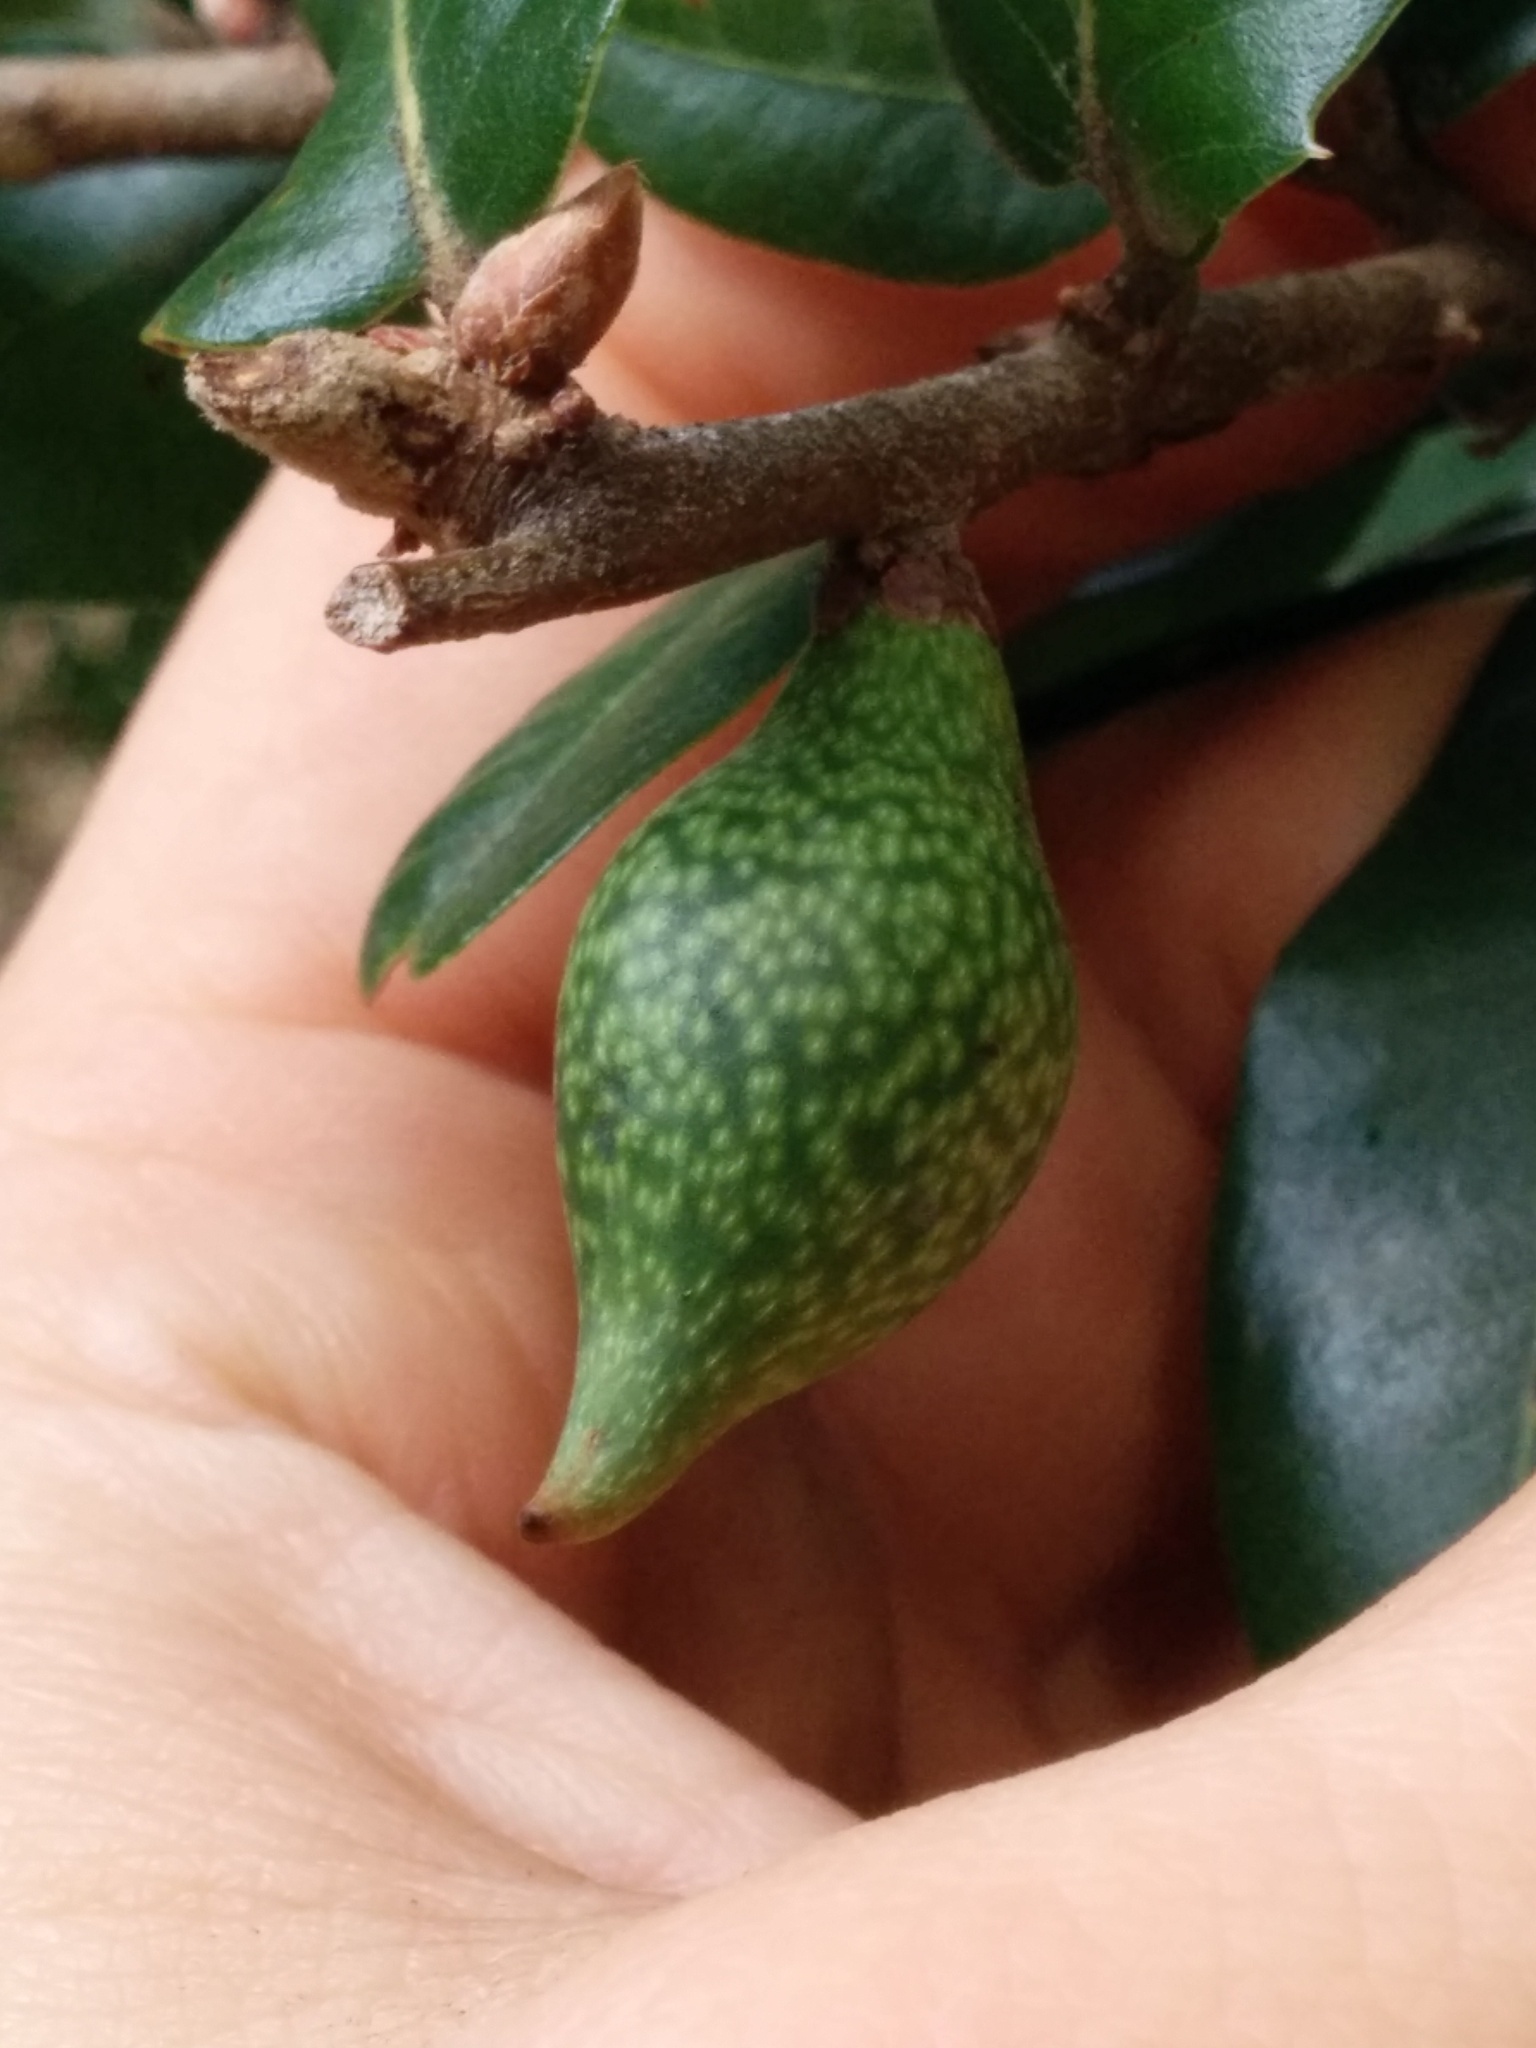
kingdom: Animalia
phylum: Arthropoda
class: Insecta
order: Hymenoptera
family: Cynipidae
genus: Heteroecus
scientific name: Heteroecus pacificus
